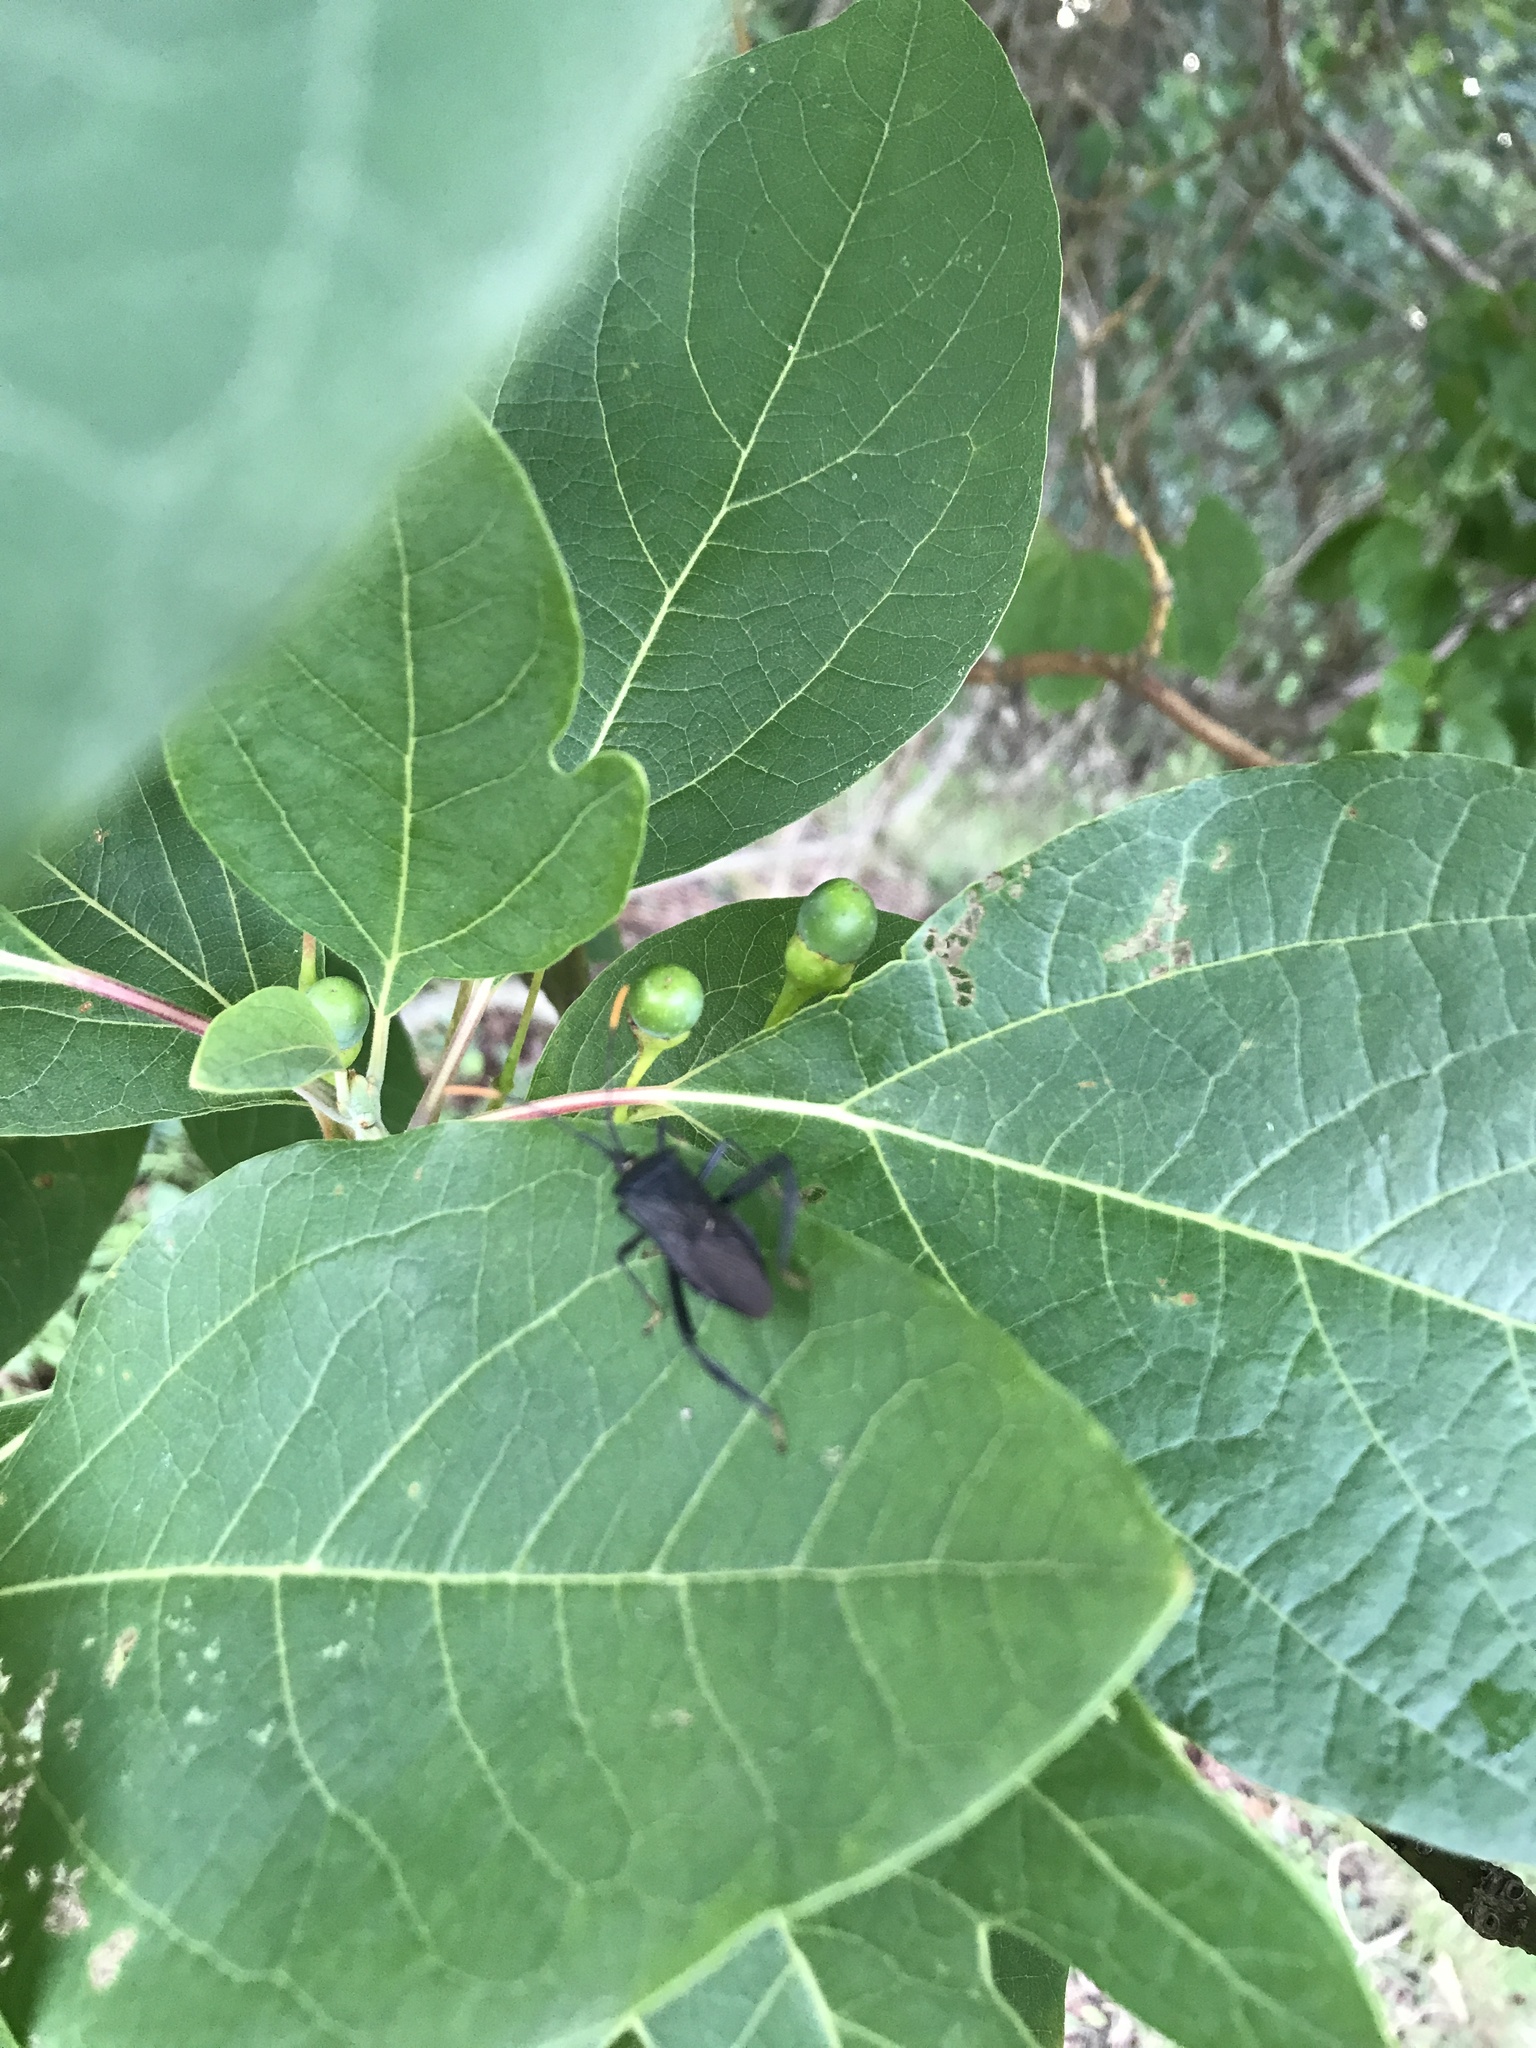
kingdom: Animalia
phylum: Arthropoda
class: Insecta
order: Hemiptera
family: Coreidae
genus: Acanthocephala
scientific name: Acanthocephala terminalis
